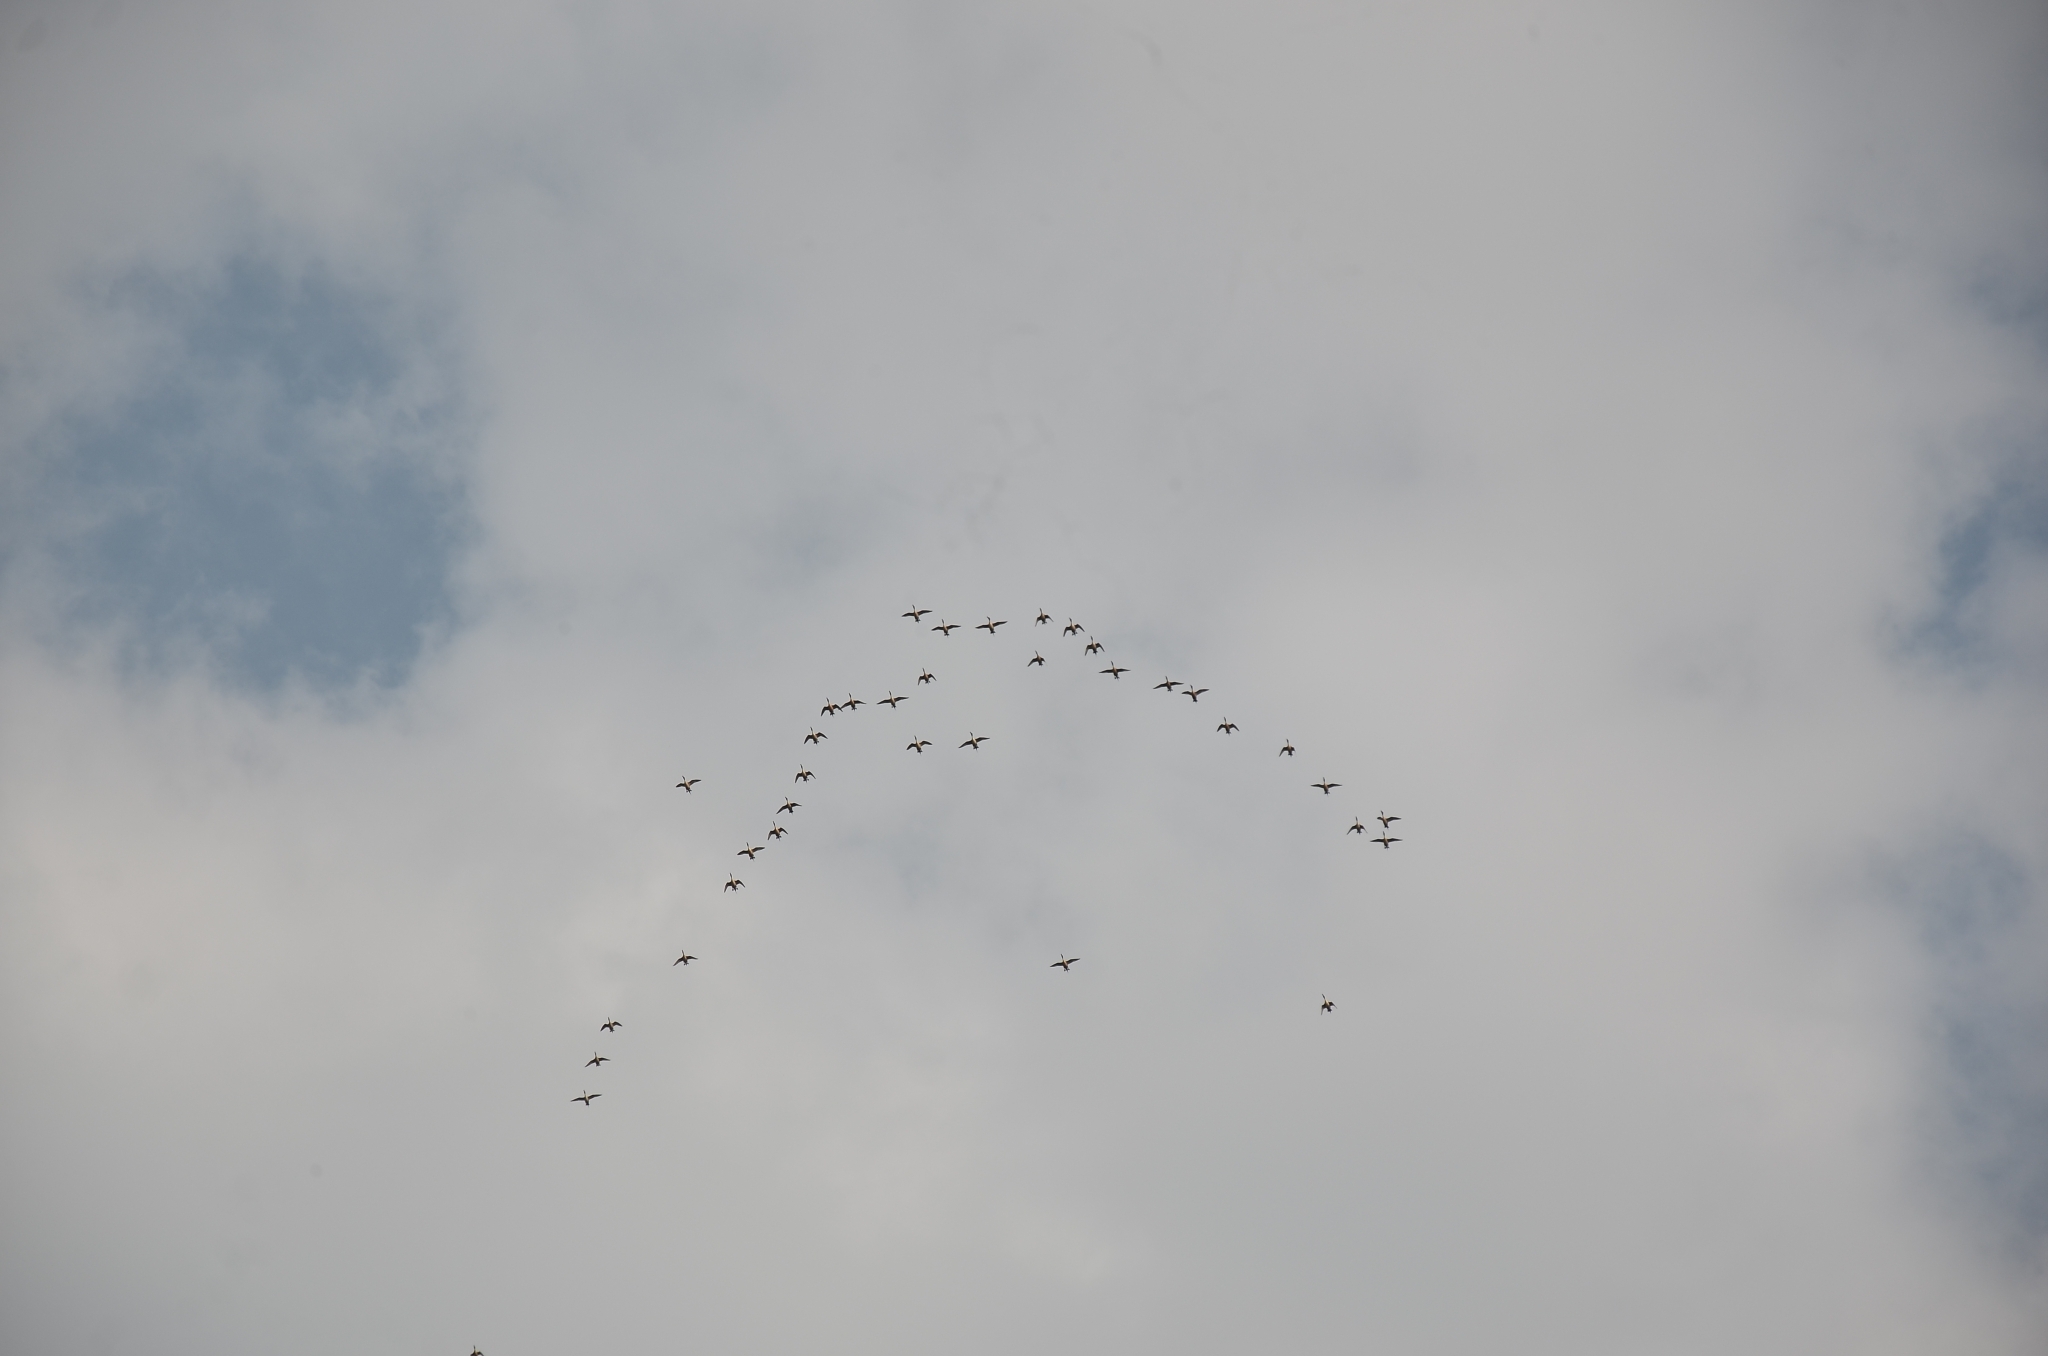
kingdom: Animalia
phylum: Chordata
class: Aves
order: Anseriformes
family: Anatidae
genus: Anas
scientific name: Anas acuta
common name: Northern pintail
